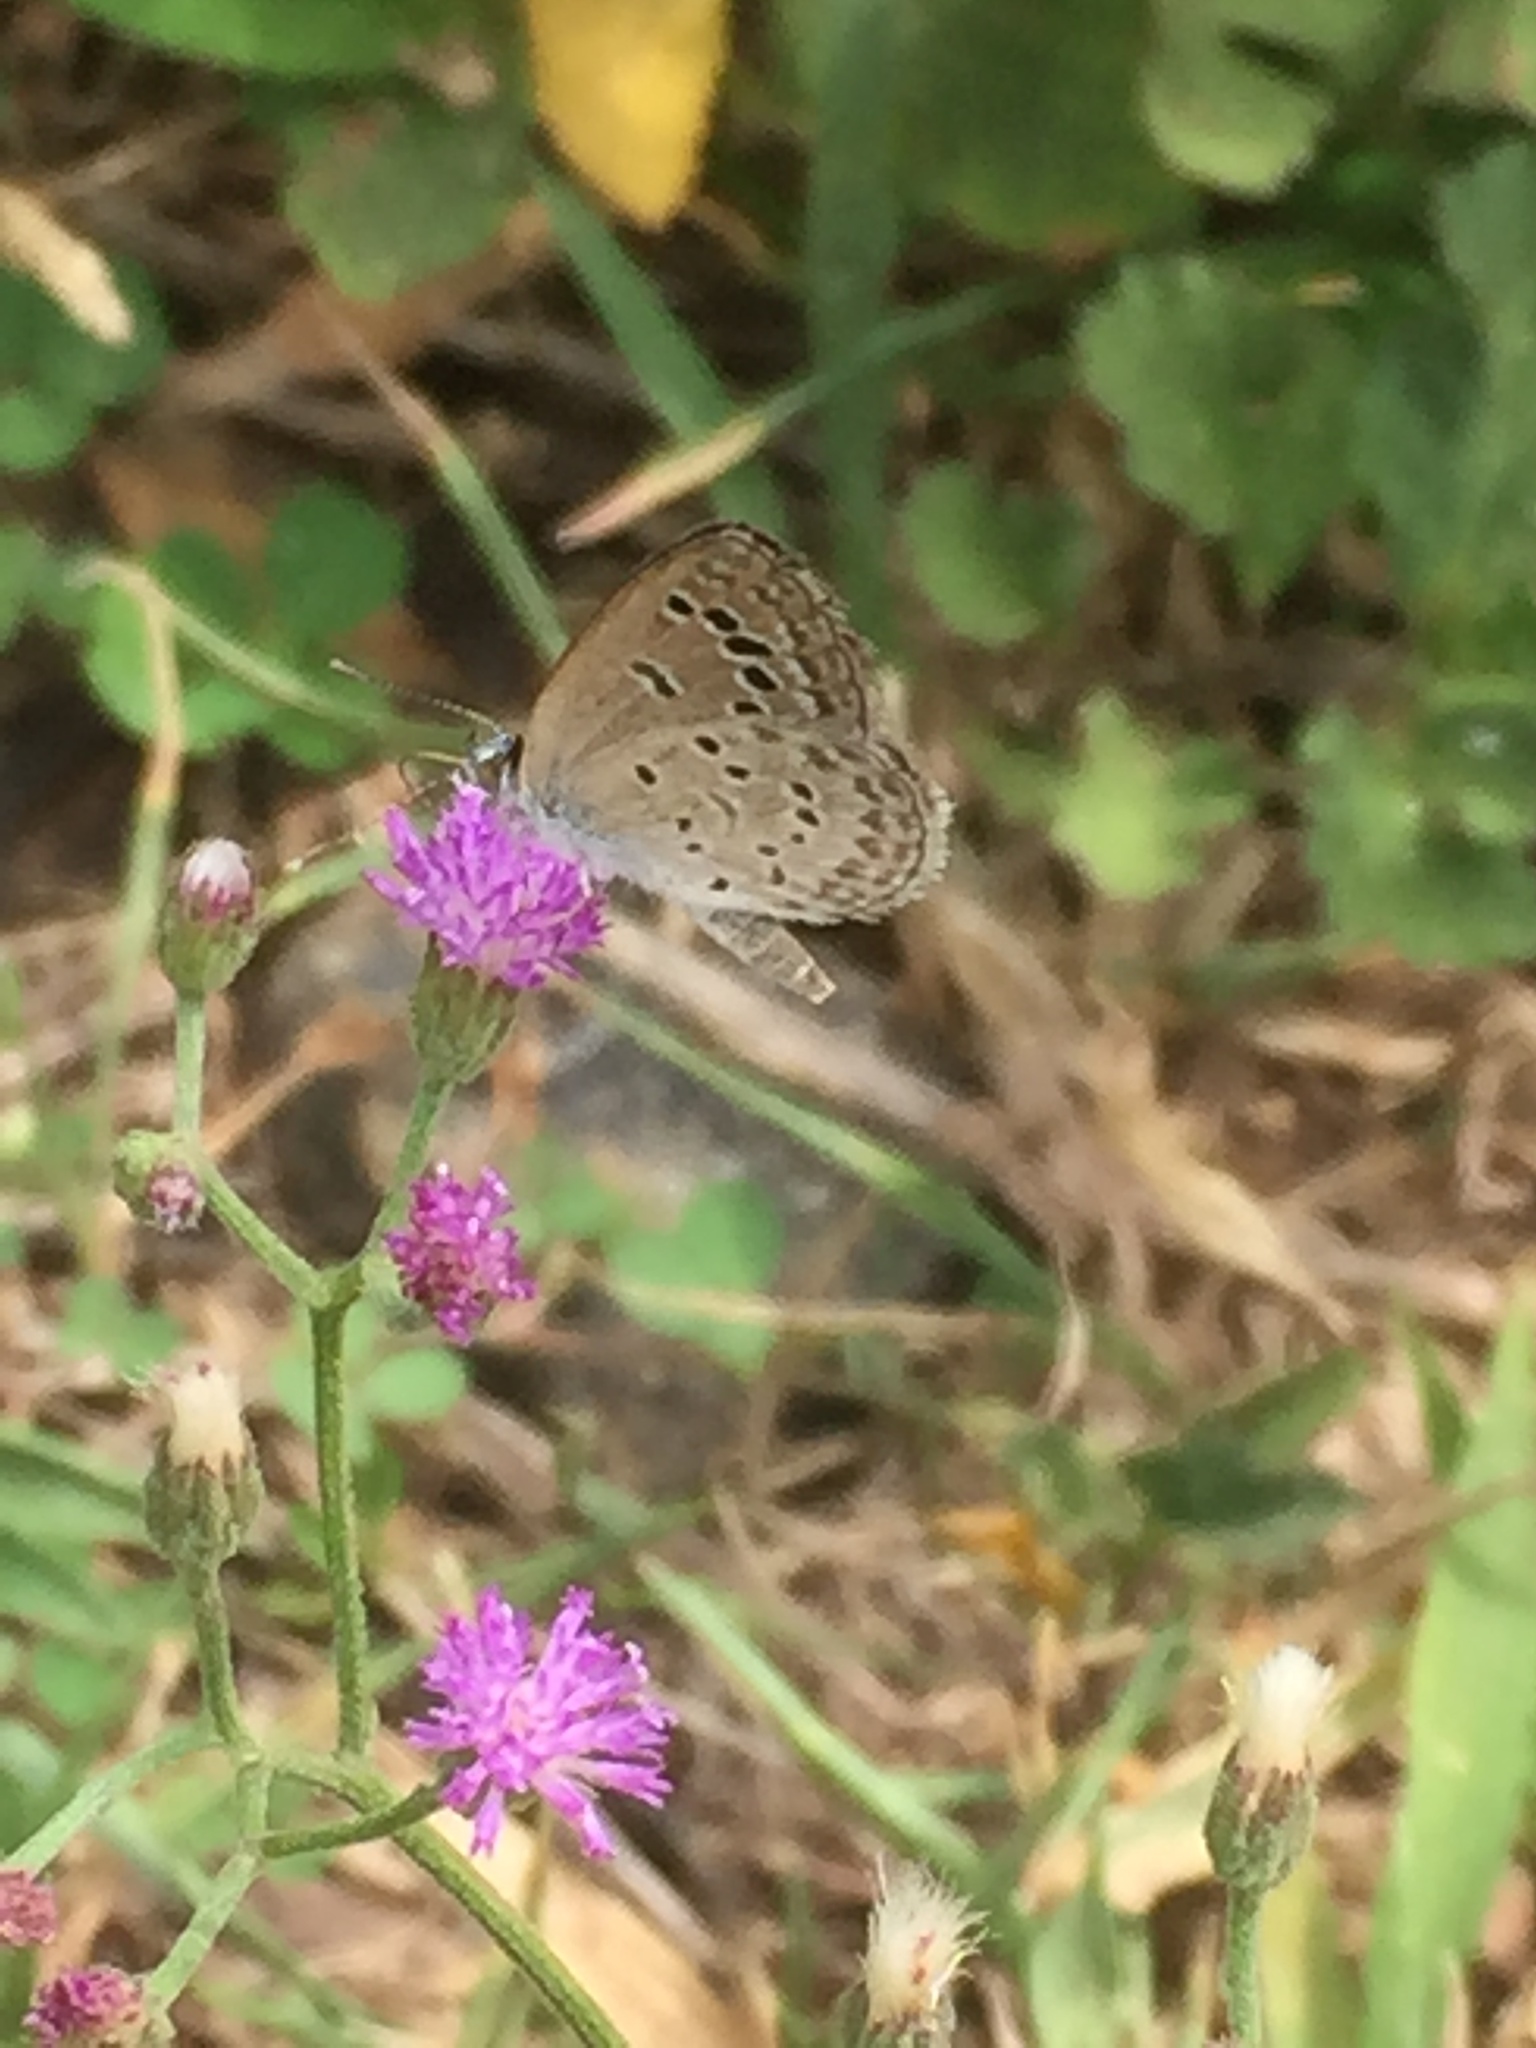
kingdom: Animalia
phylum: Arthropoda
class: Insecta
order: Lepidoptera
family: Lycaenidae
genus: Zizina
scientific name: Zizina otis
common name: Lesser grass blue
